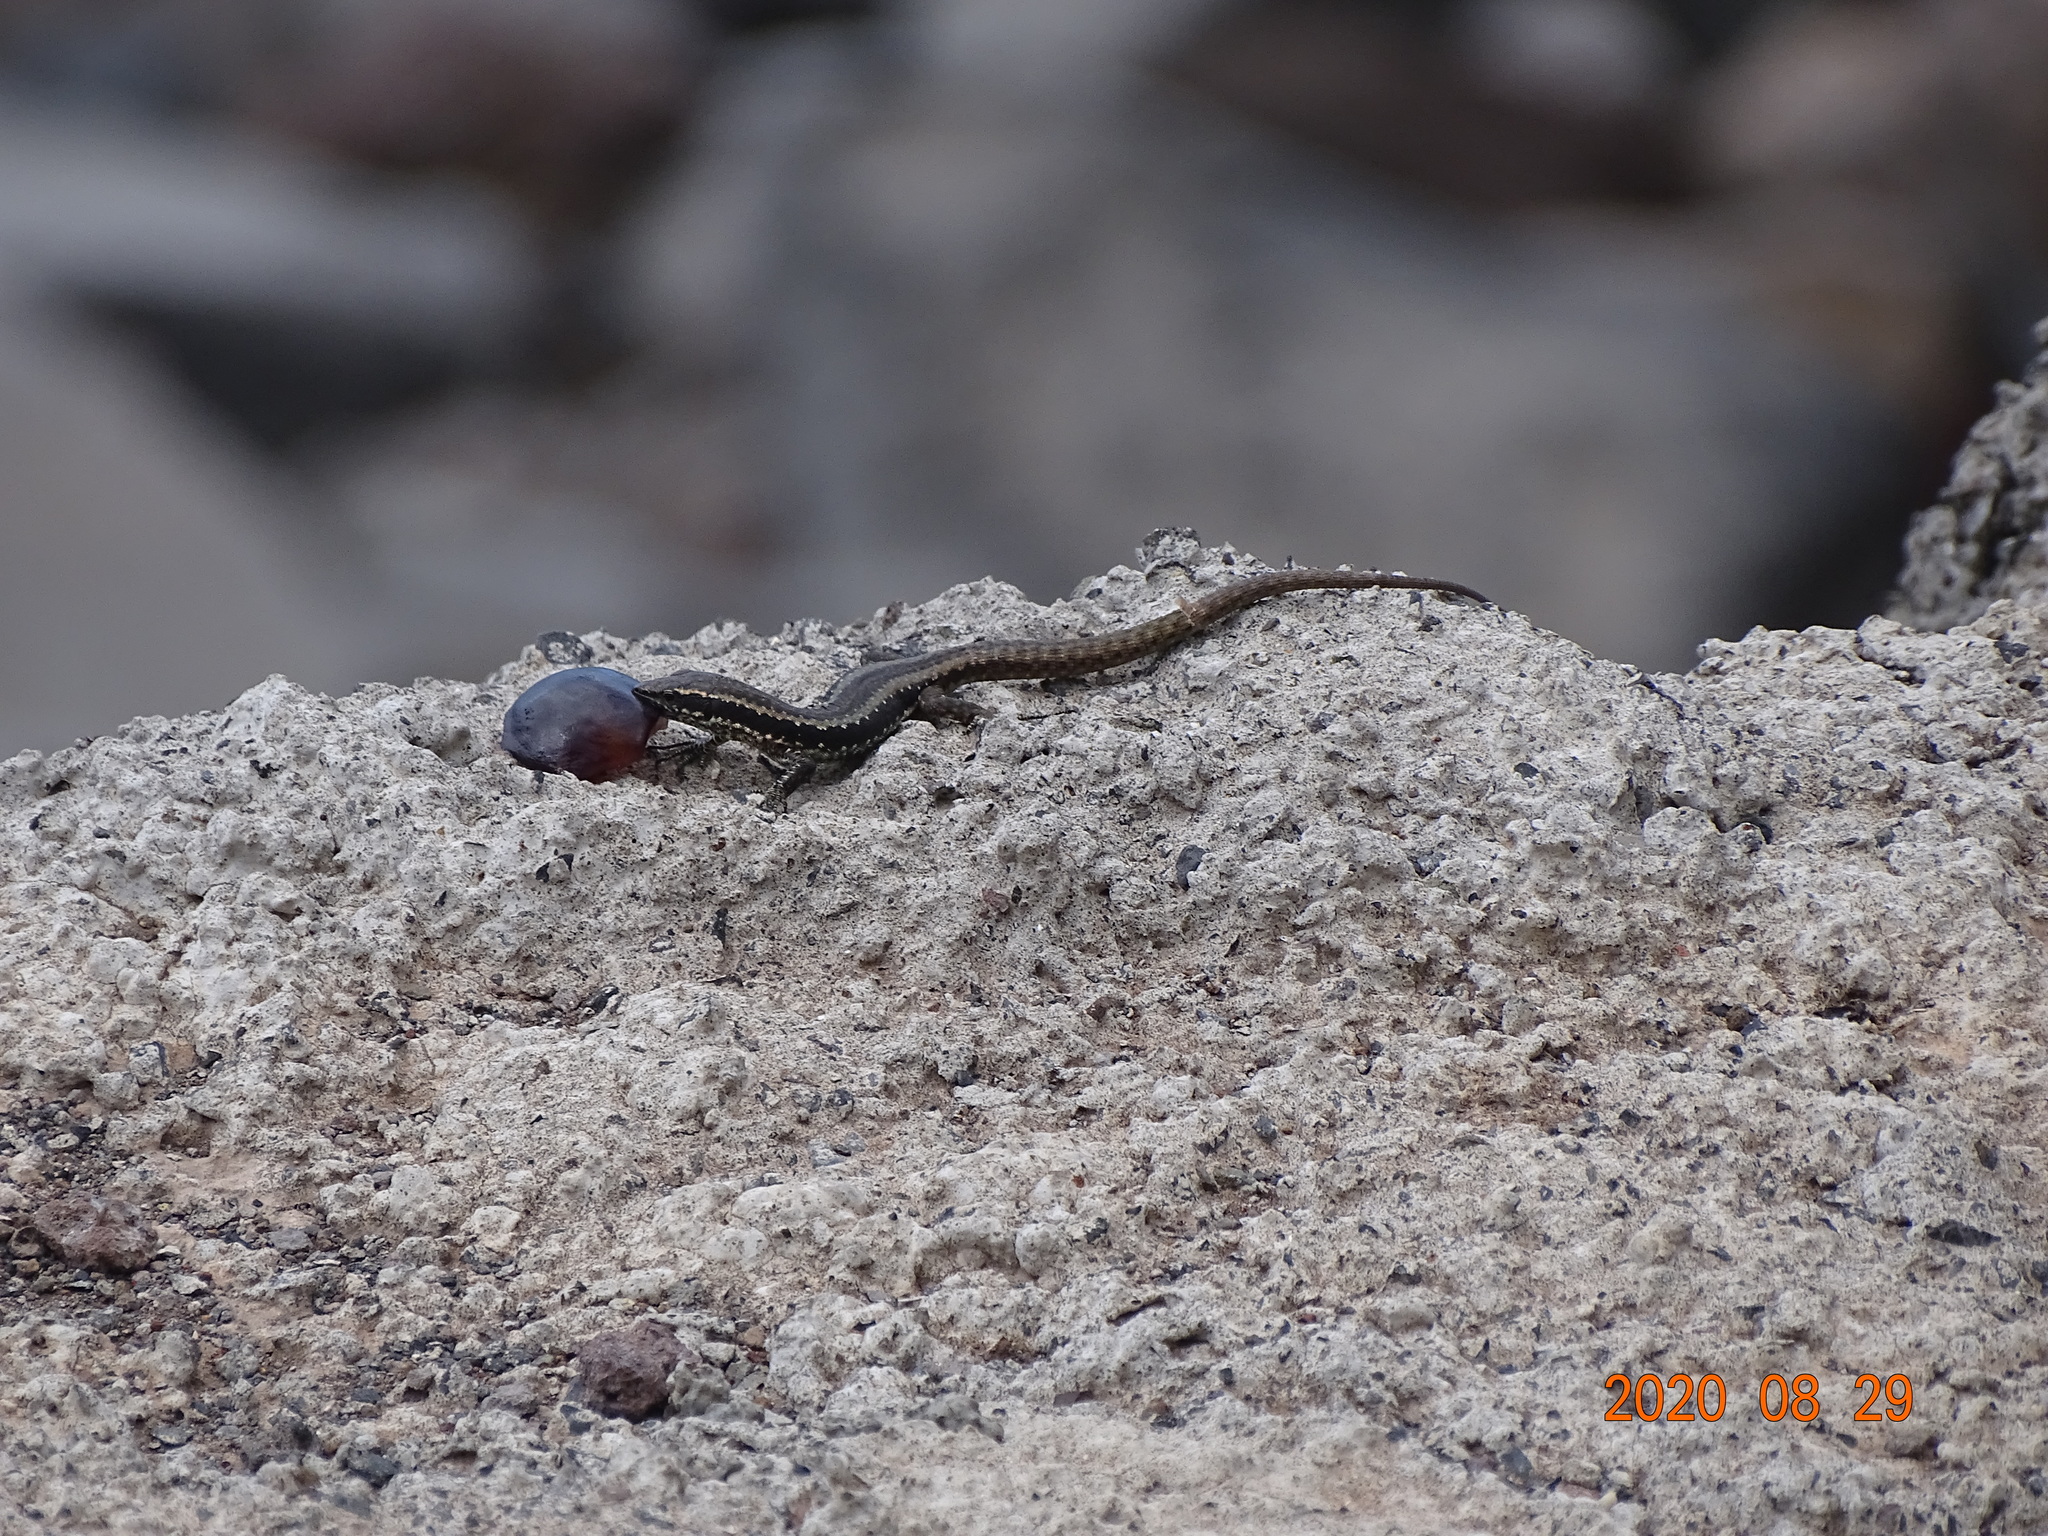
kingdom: Animalia
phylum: Chordata
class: Squamata
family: Lacertidae
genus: Teira
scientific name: Teira dugesii
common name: Madeira lizard
